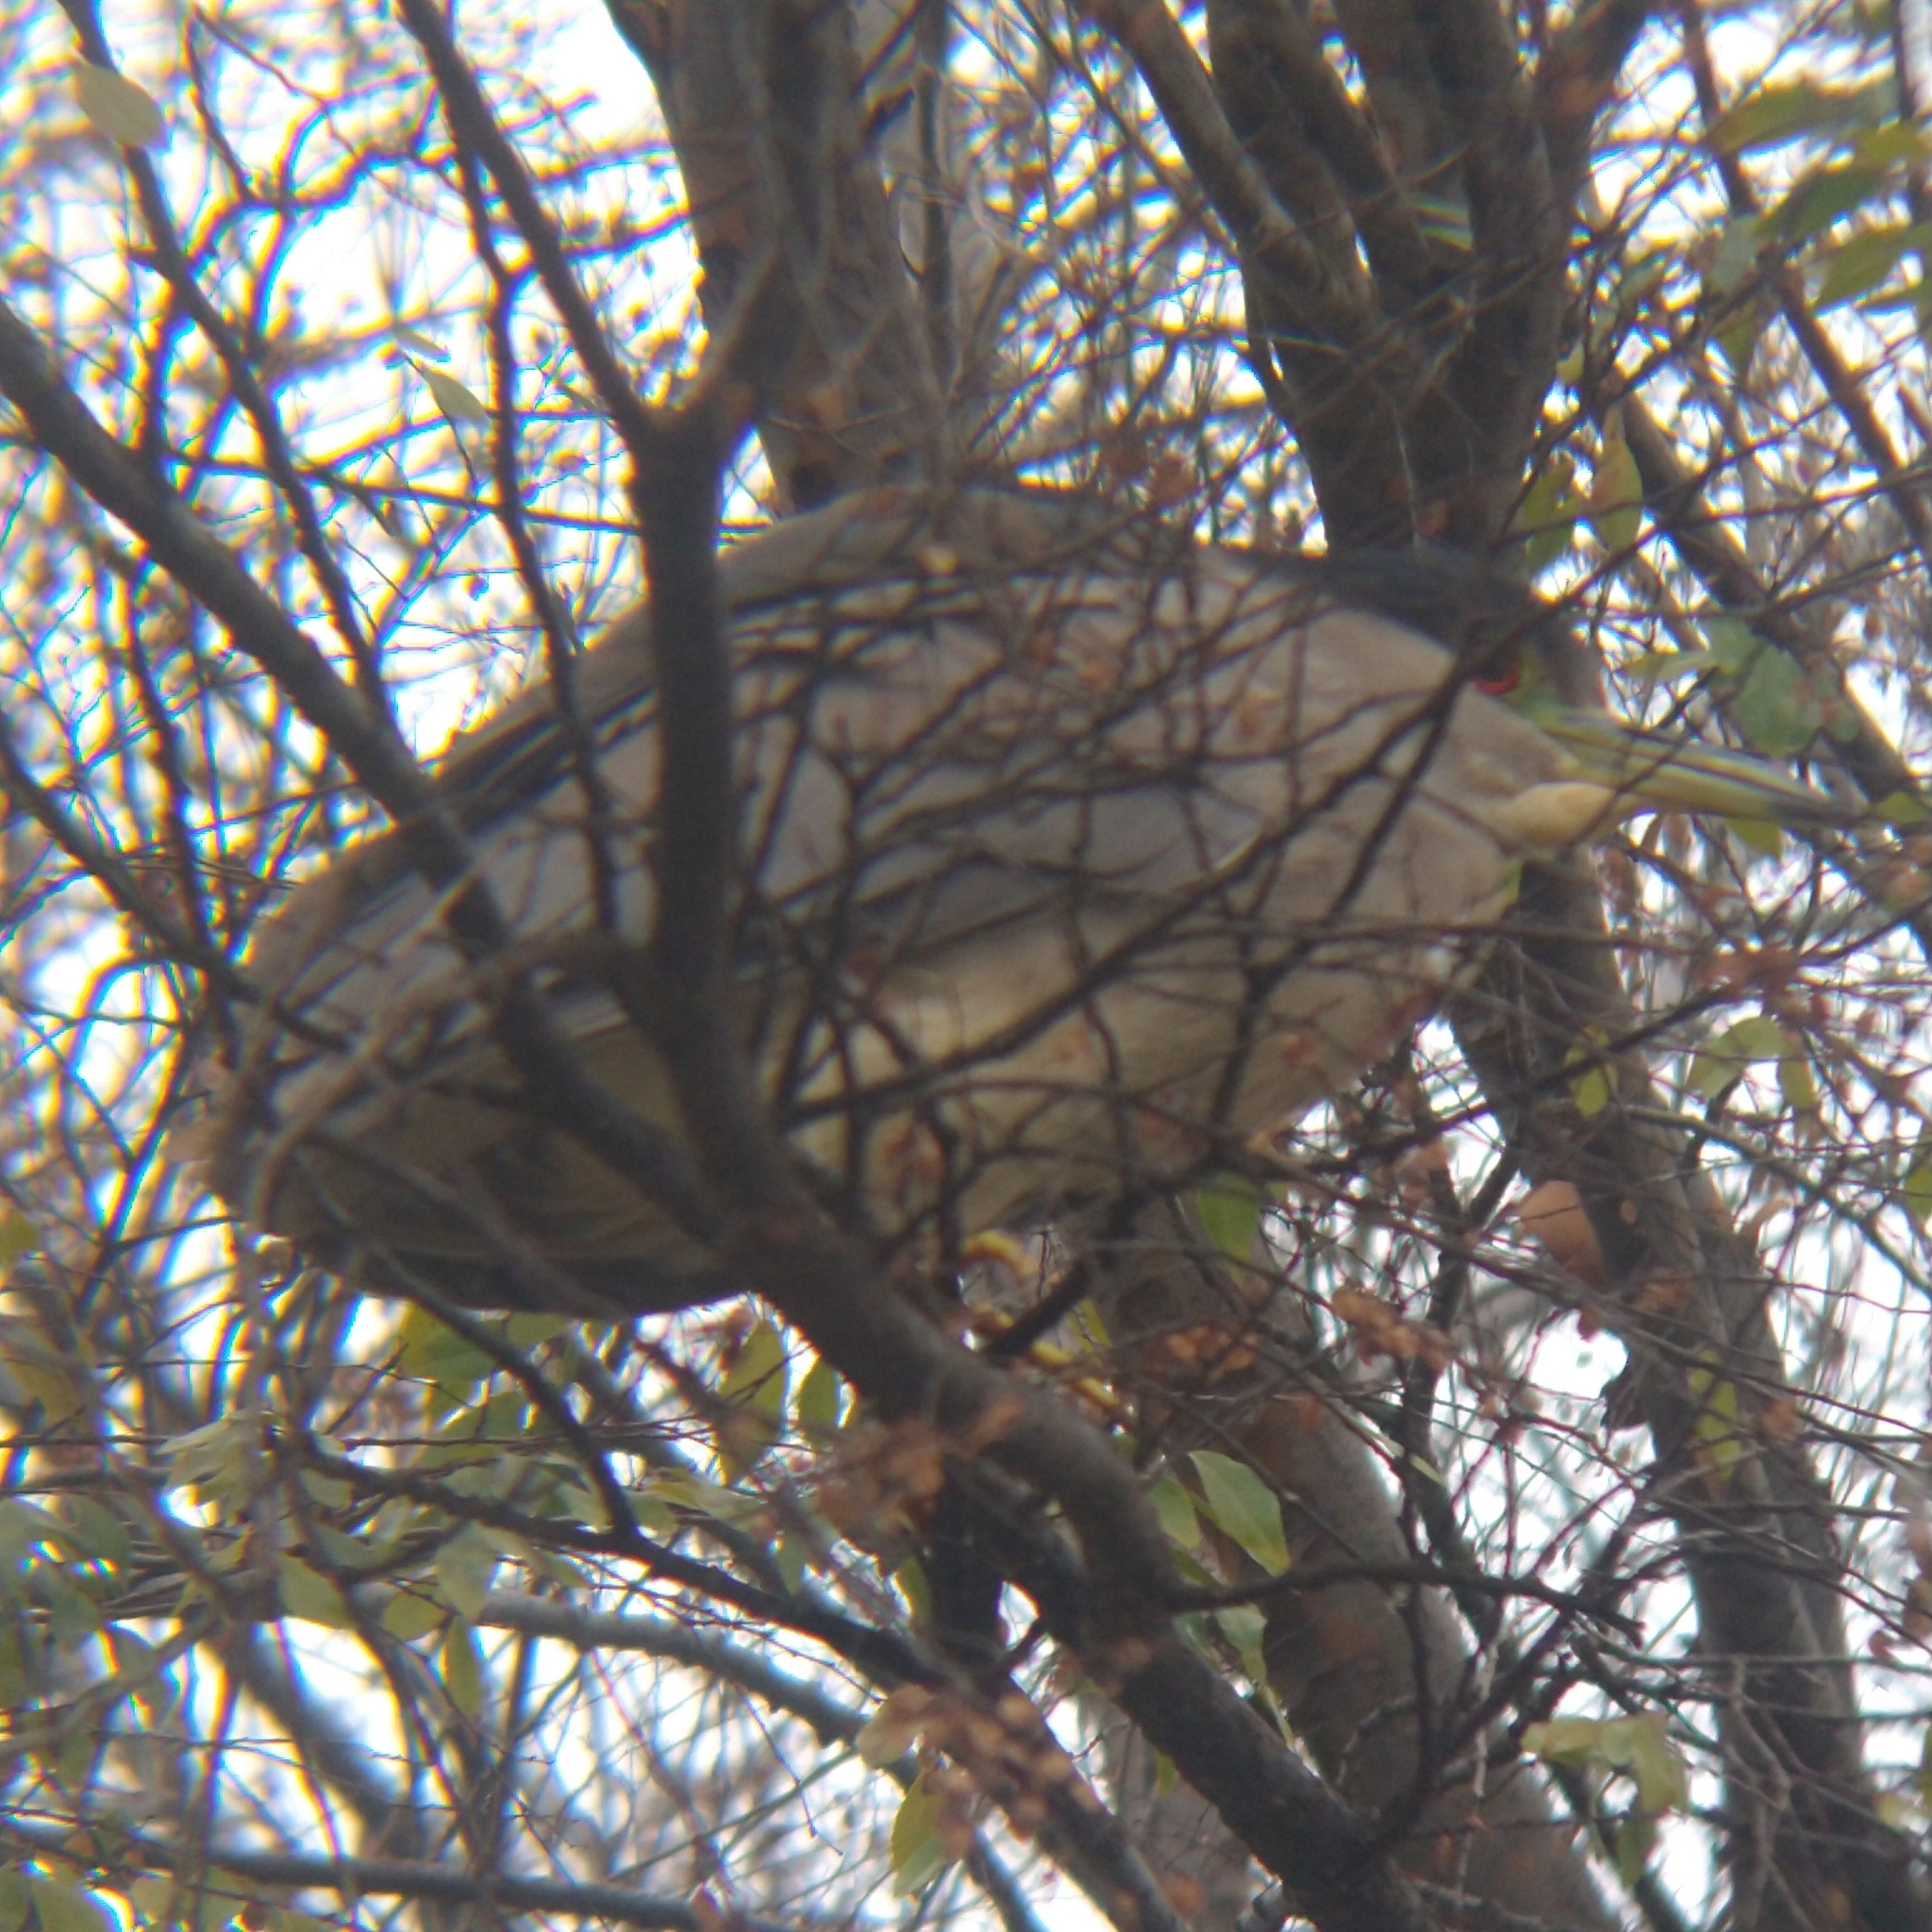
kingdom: Animalia
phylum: Chordata
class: Aves
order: Pelecaniformes
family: Ardeidae
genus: Nycticorax
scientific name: Nycticorax nycticorax
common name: Black-crowned night heron
